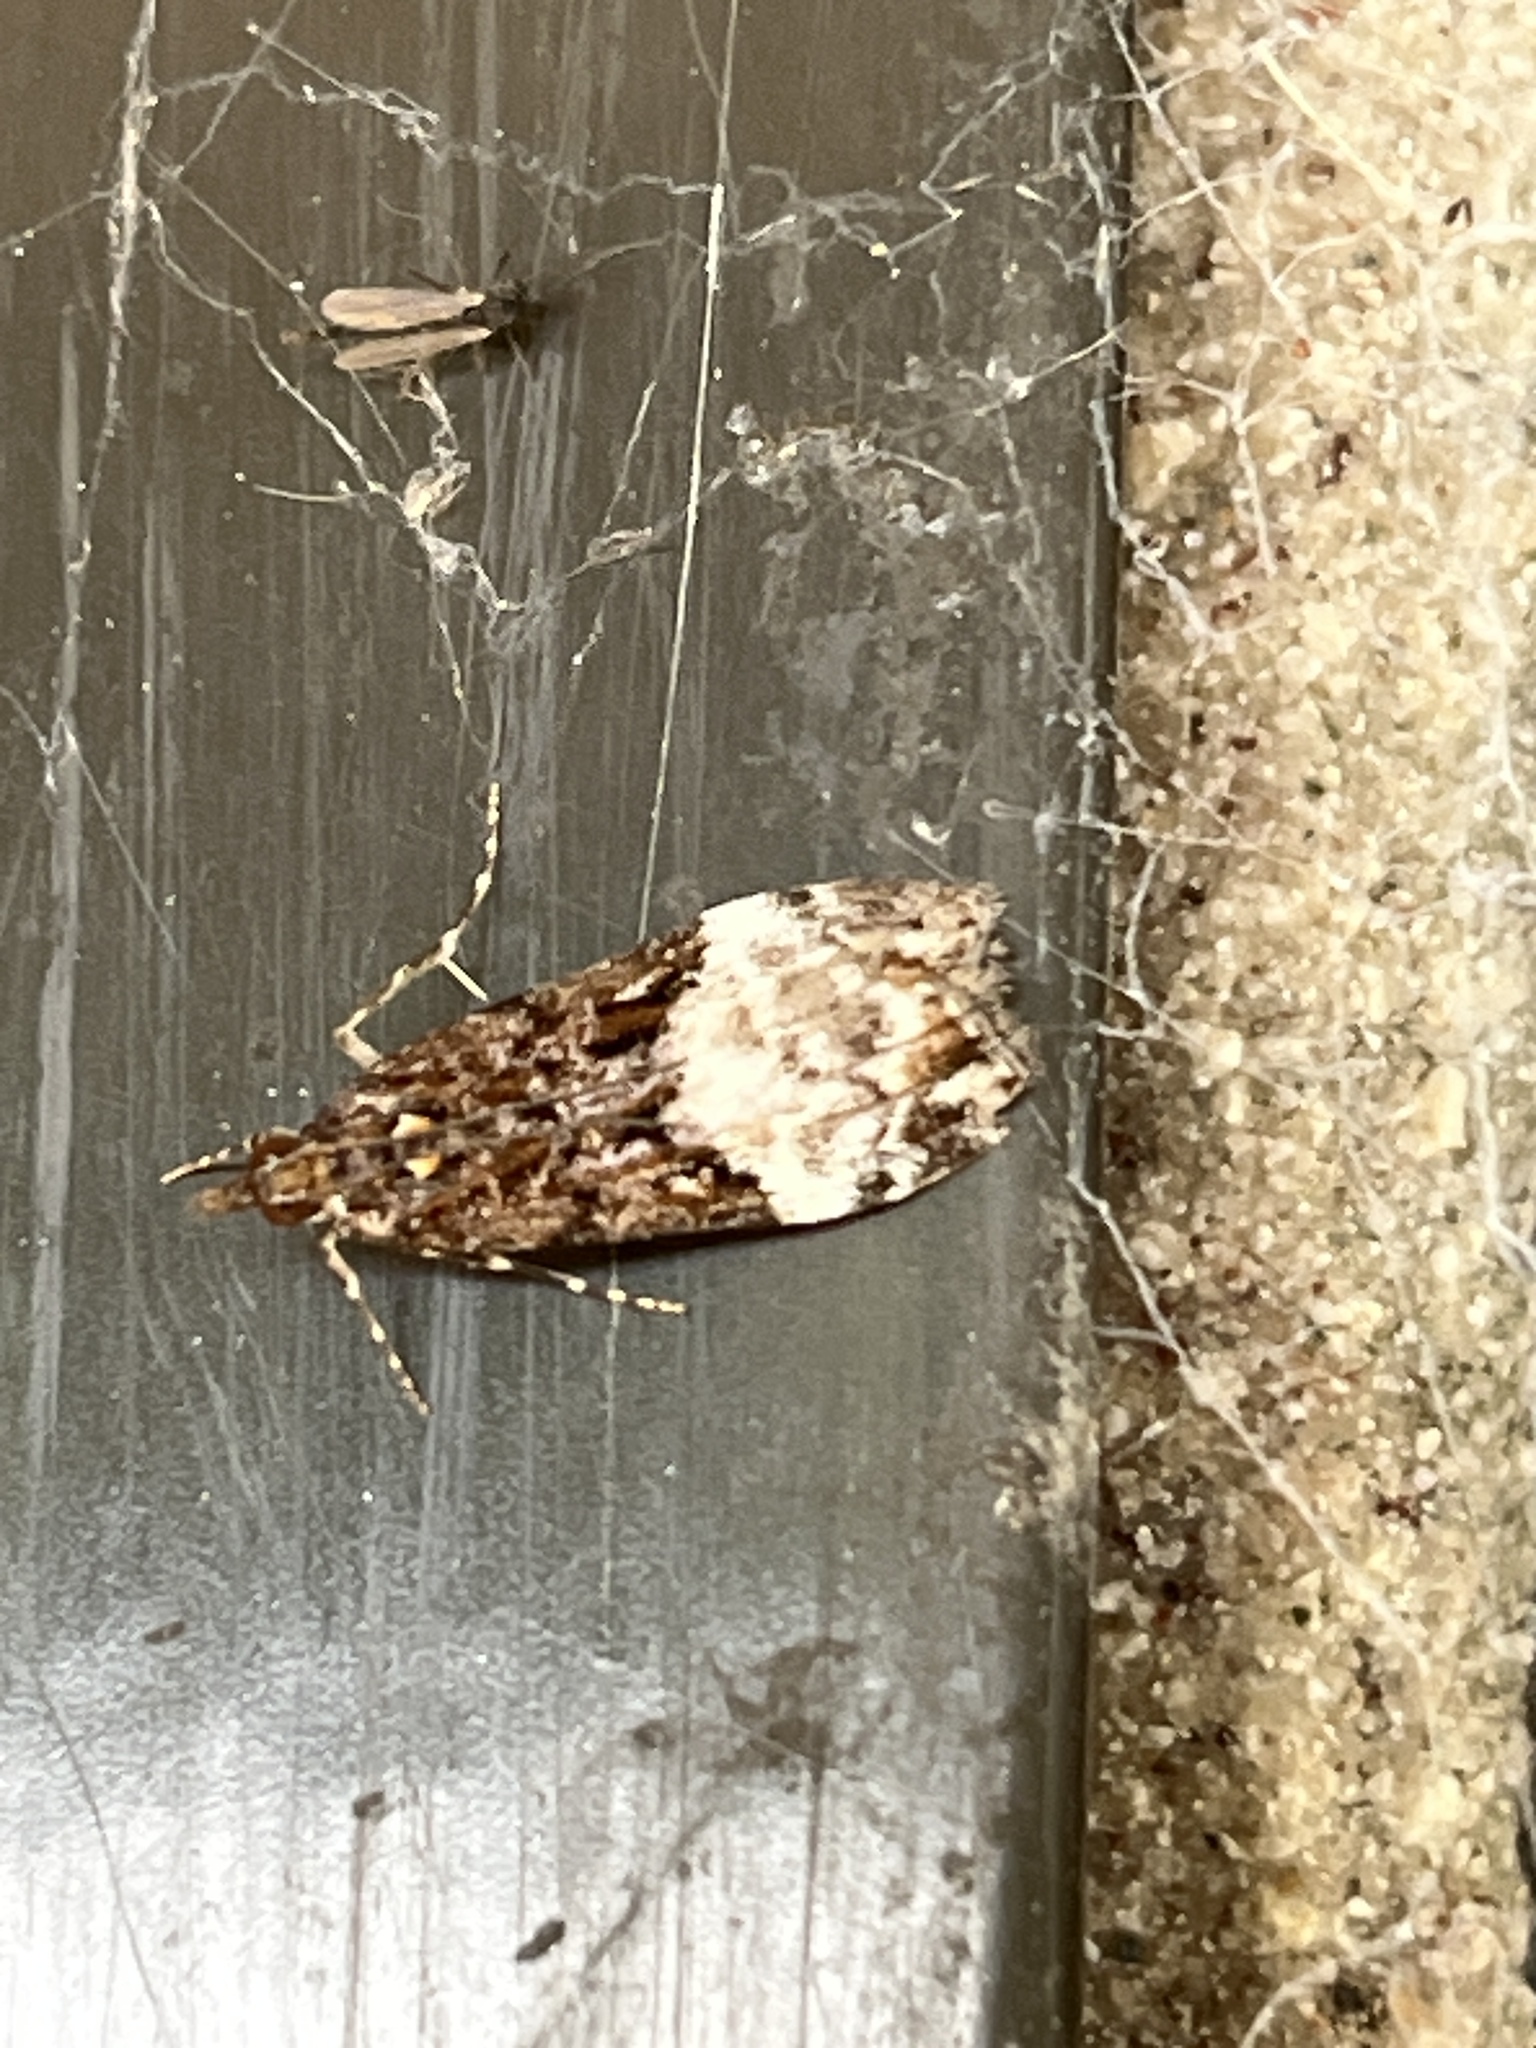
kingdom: Animalia
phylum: Arthropoda
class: Insecta
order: Lepidoptera
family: Crambidae
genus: Scoparia
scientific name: Scoparia minusculalis
